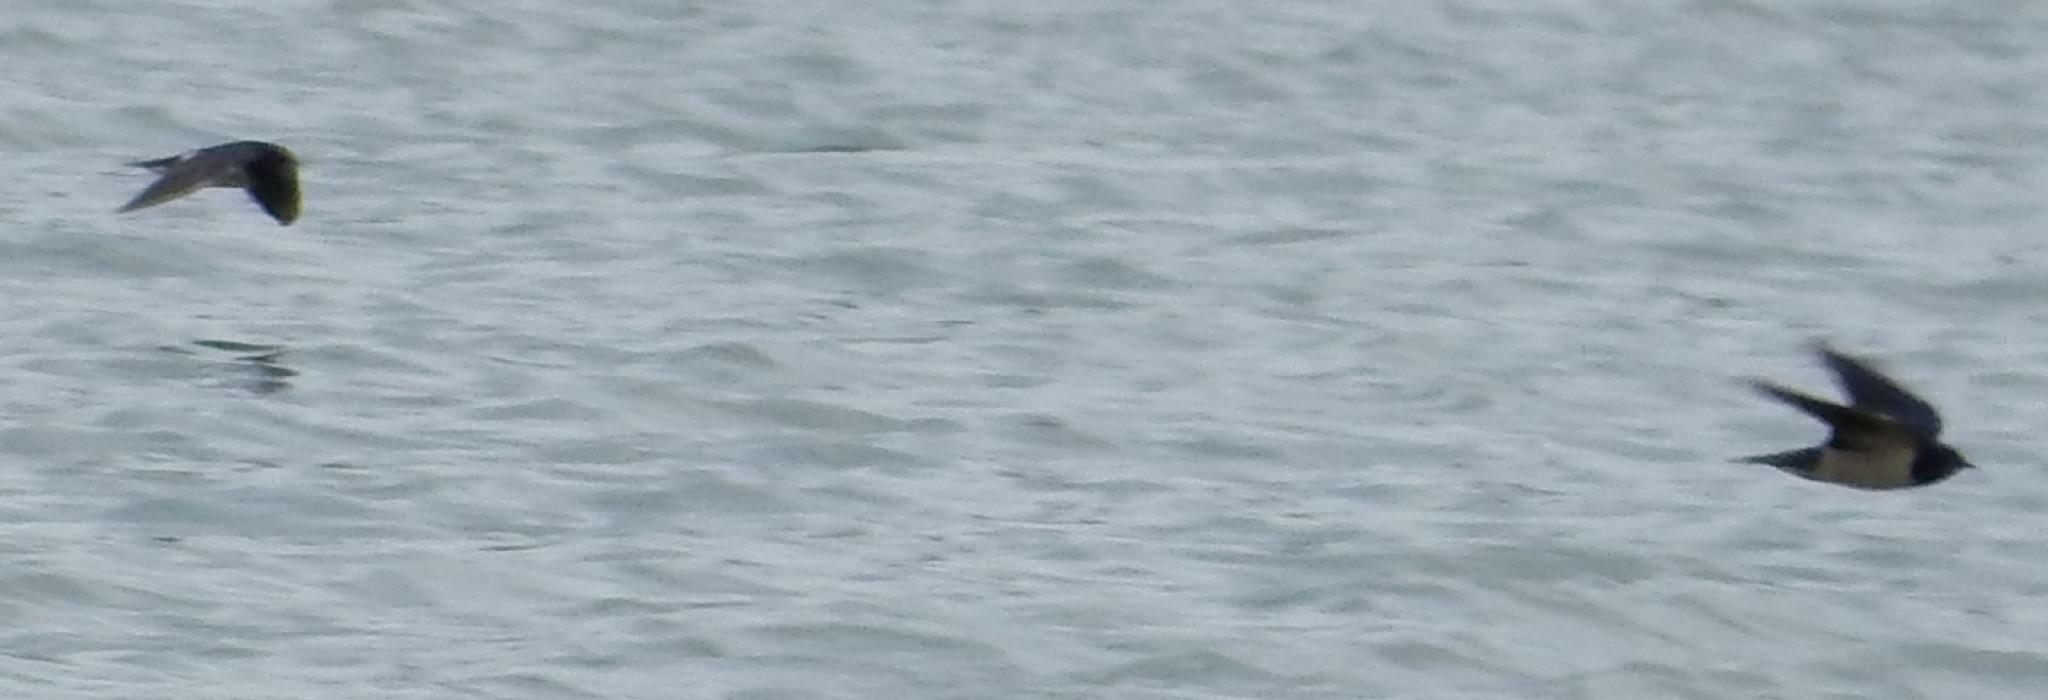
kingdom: Animalia
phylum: Chordata
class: Aves
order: Passeriformes
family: Hirundinidae
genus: Hirundo
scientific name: Hirundo rustica
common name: Barn swallow
